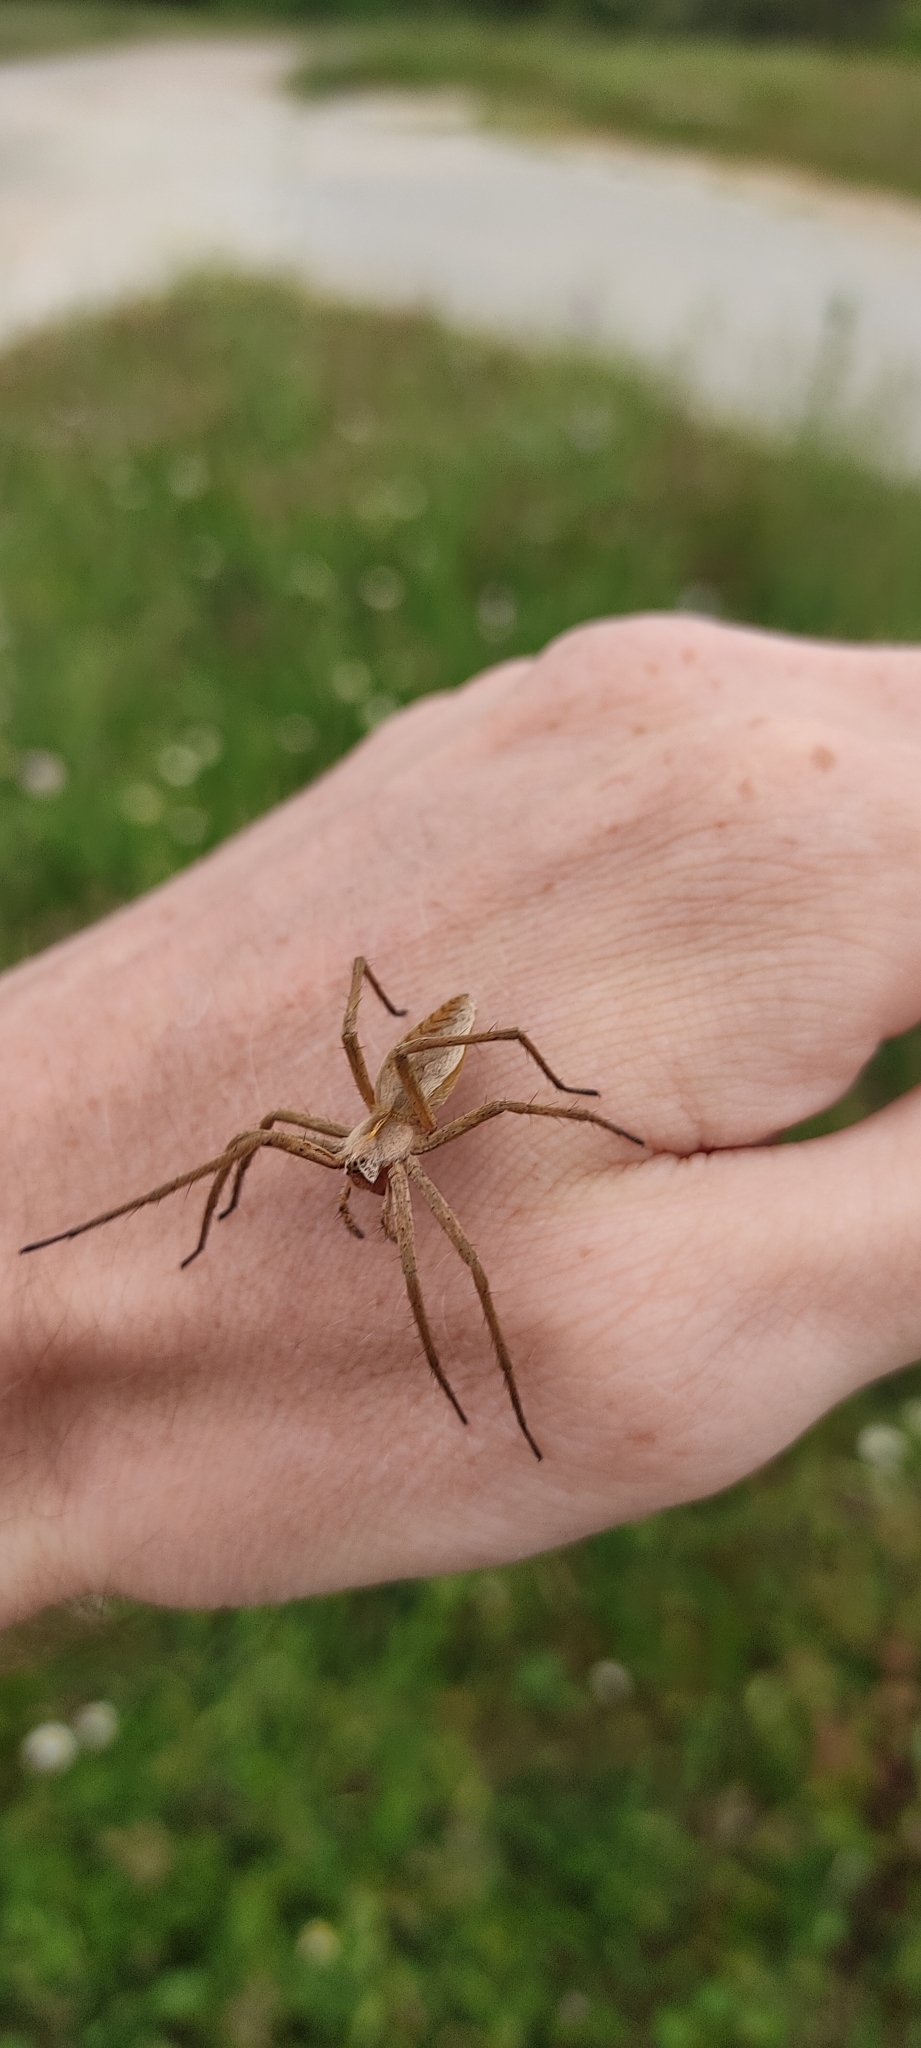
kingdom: Animalia
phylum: Arthropoda
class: Arachnida
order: Araneae
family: Pisauridae
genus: Pisaura
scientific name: Pisaura
